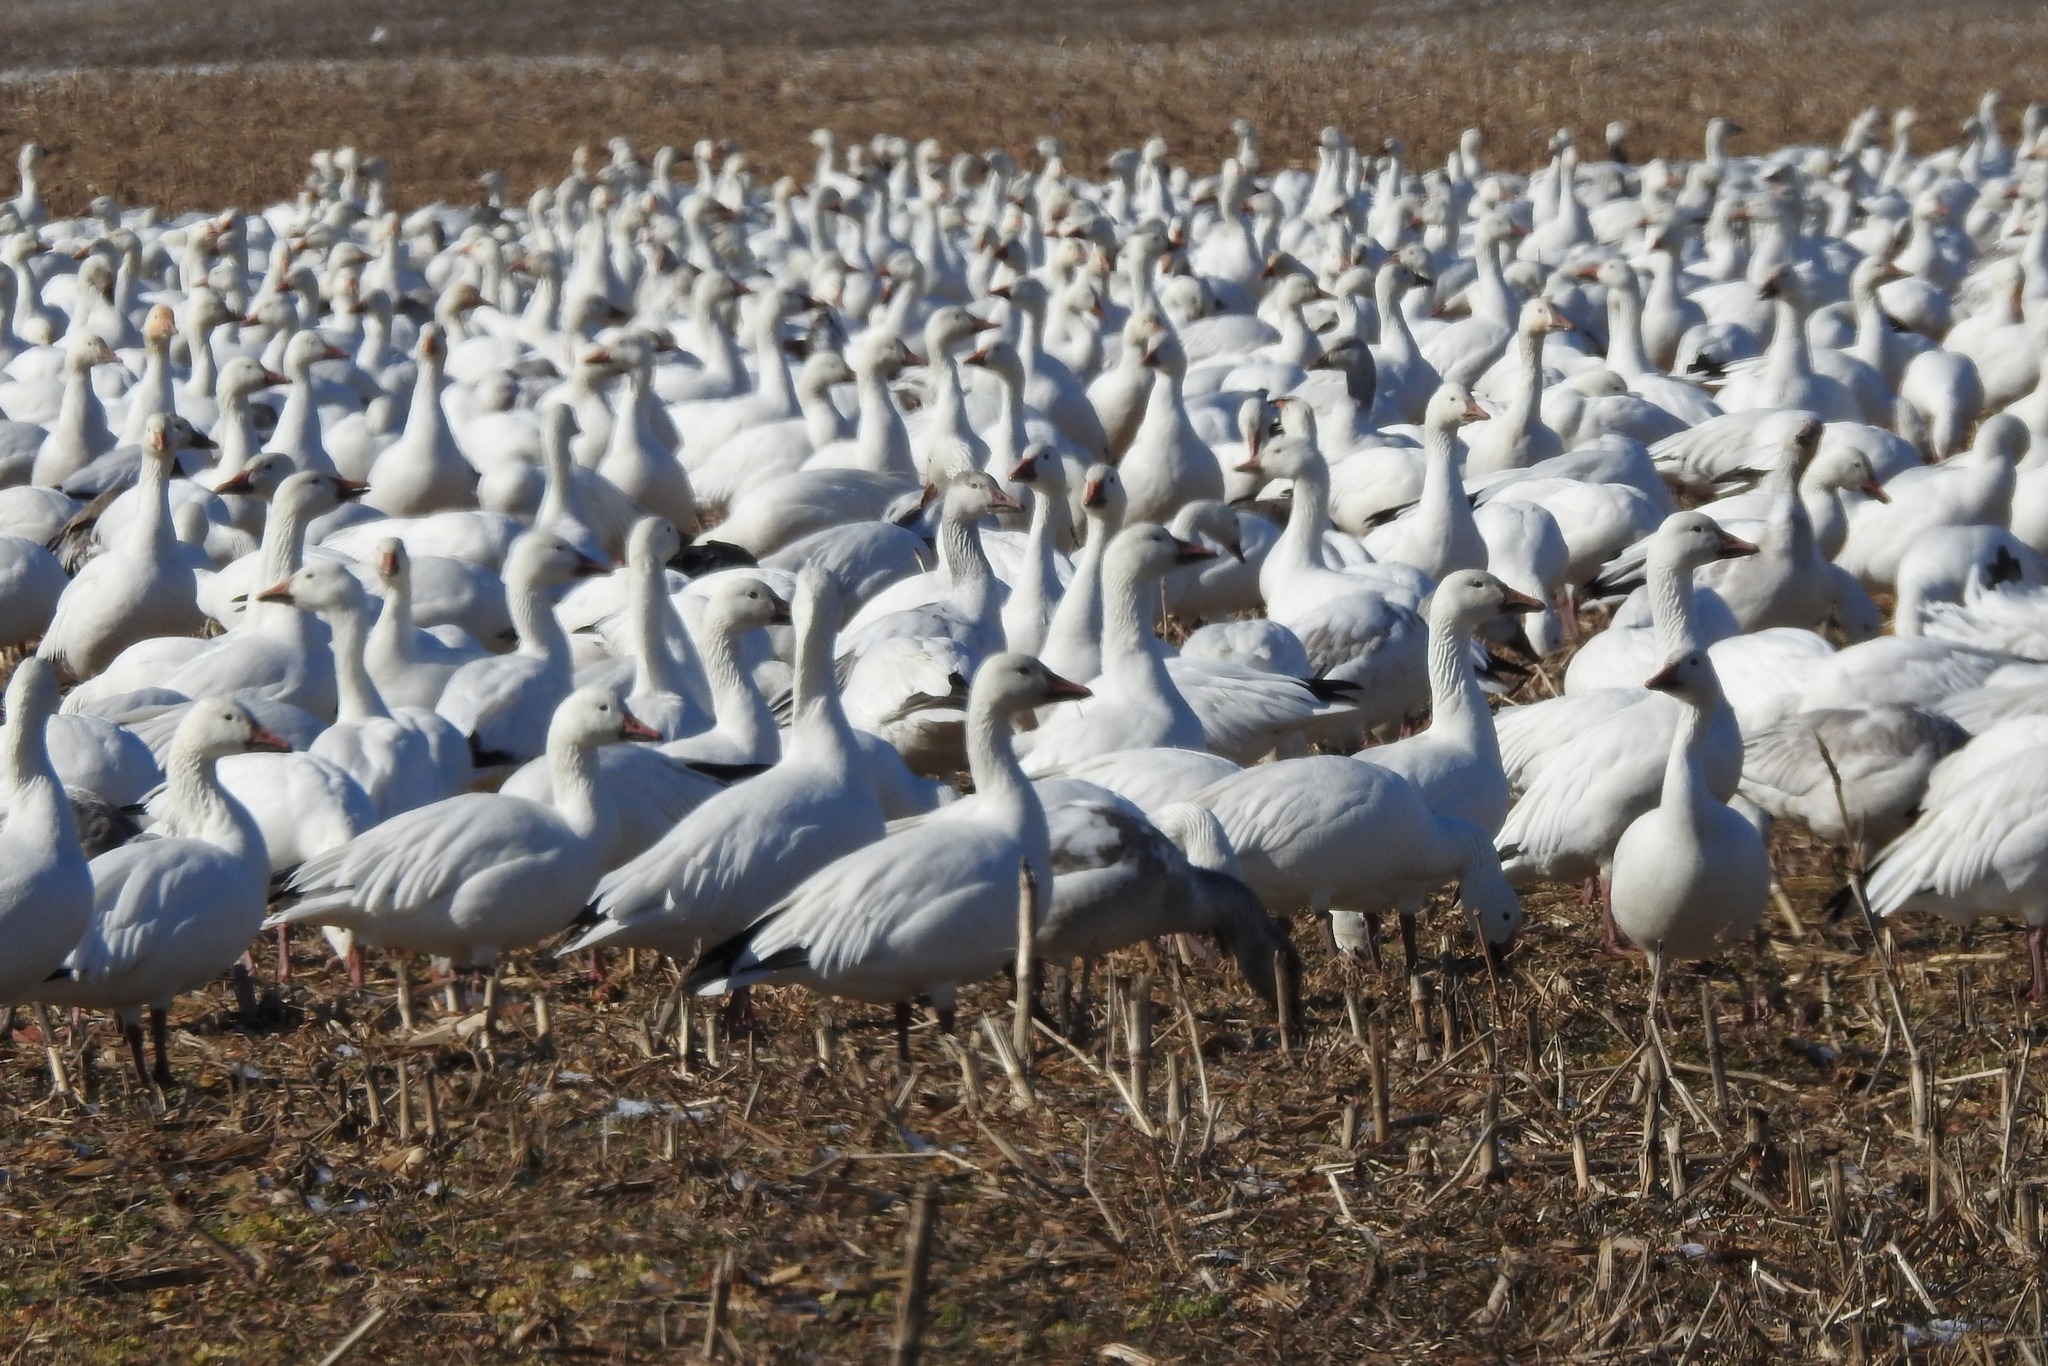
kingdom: Animalia
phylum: Chordata
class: Aves
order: Anseriformes
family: Anatidae
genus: Anser
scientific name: Anser caerulescens
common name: Snow goose
